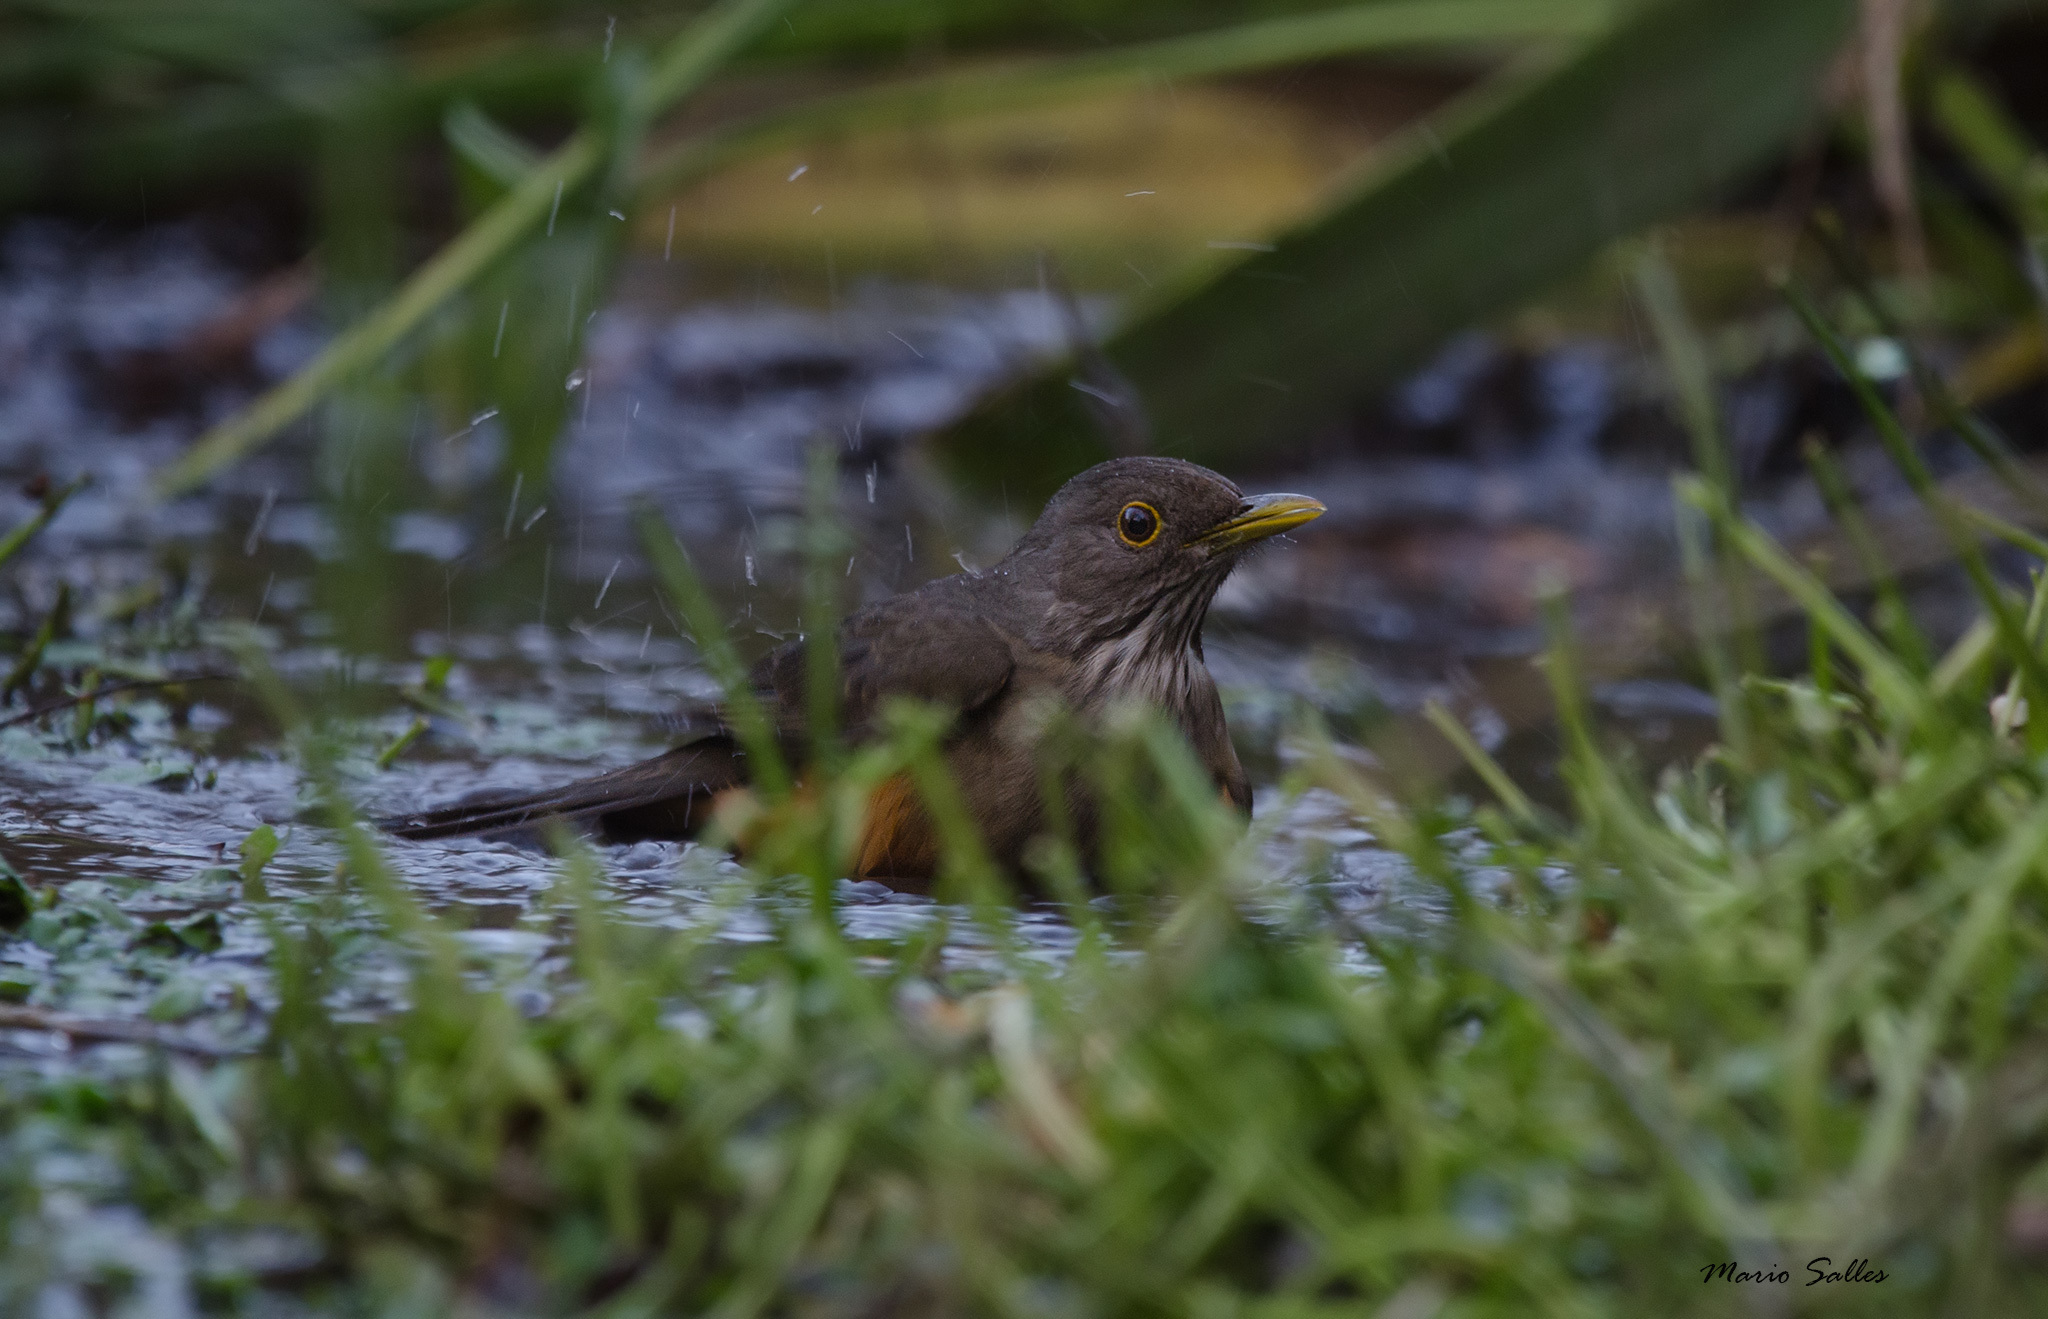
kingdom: Animalia
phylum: Chordata
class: Aves
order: Passeriformes
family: Turdidae
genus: Turdus
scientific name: Turdus rufiventris
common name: Rufous-bellied thrush
